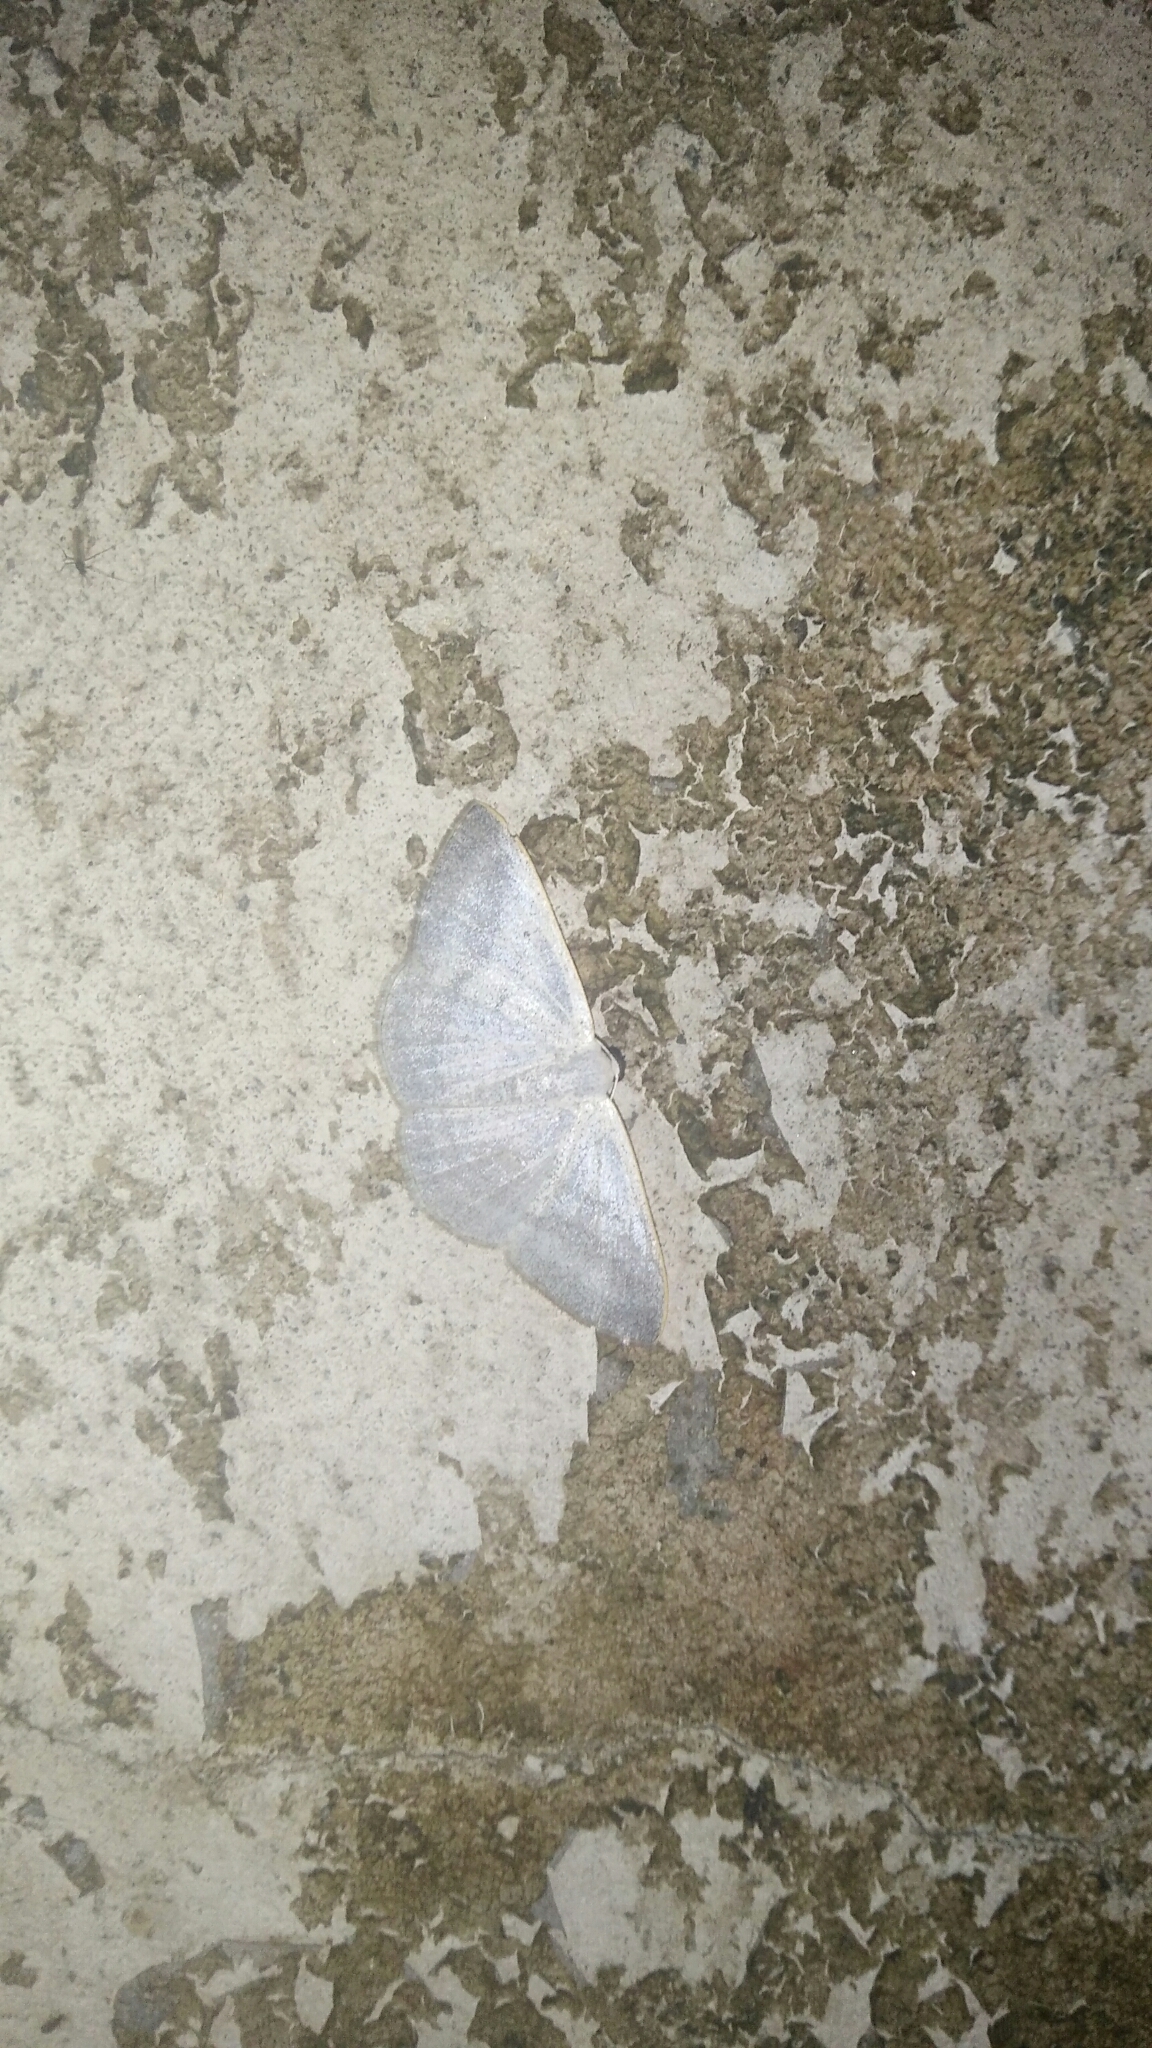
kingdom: Animalia
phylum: Arthropoda
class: Insecta
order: Lepidoptera
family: Geometridae
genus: Lomographa
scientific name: Lomographa platyleucata
